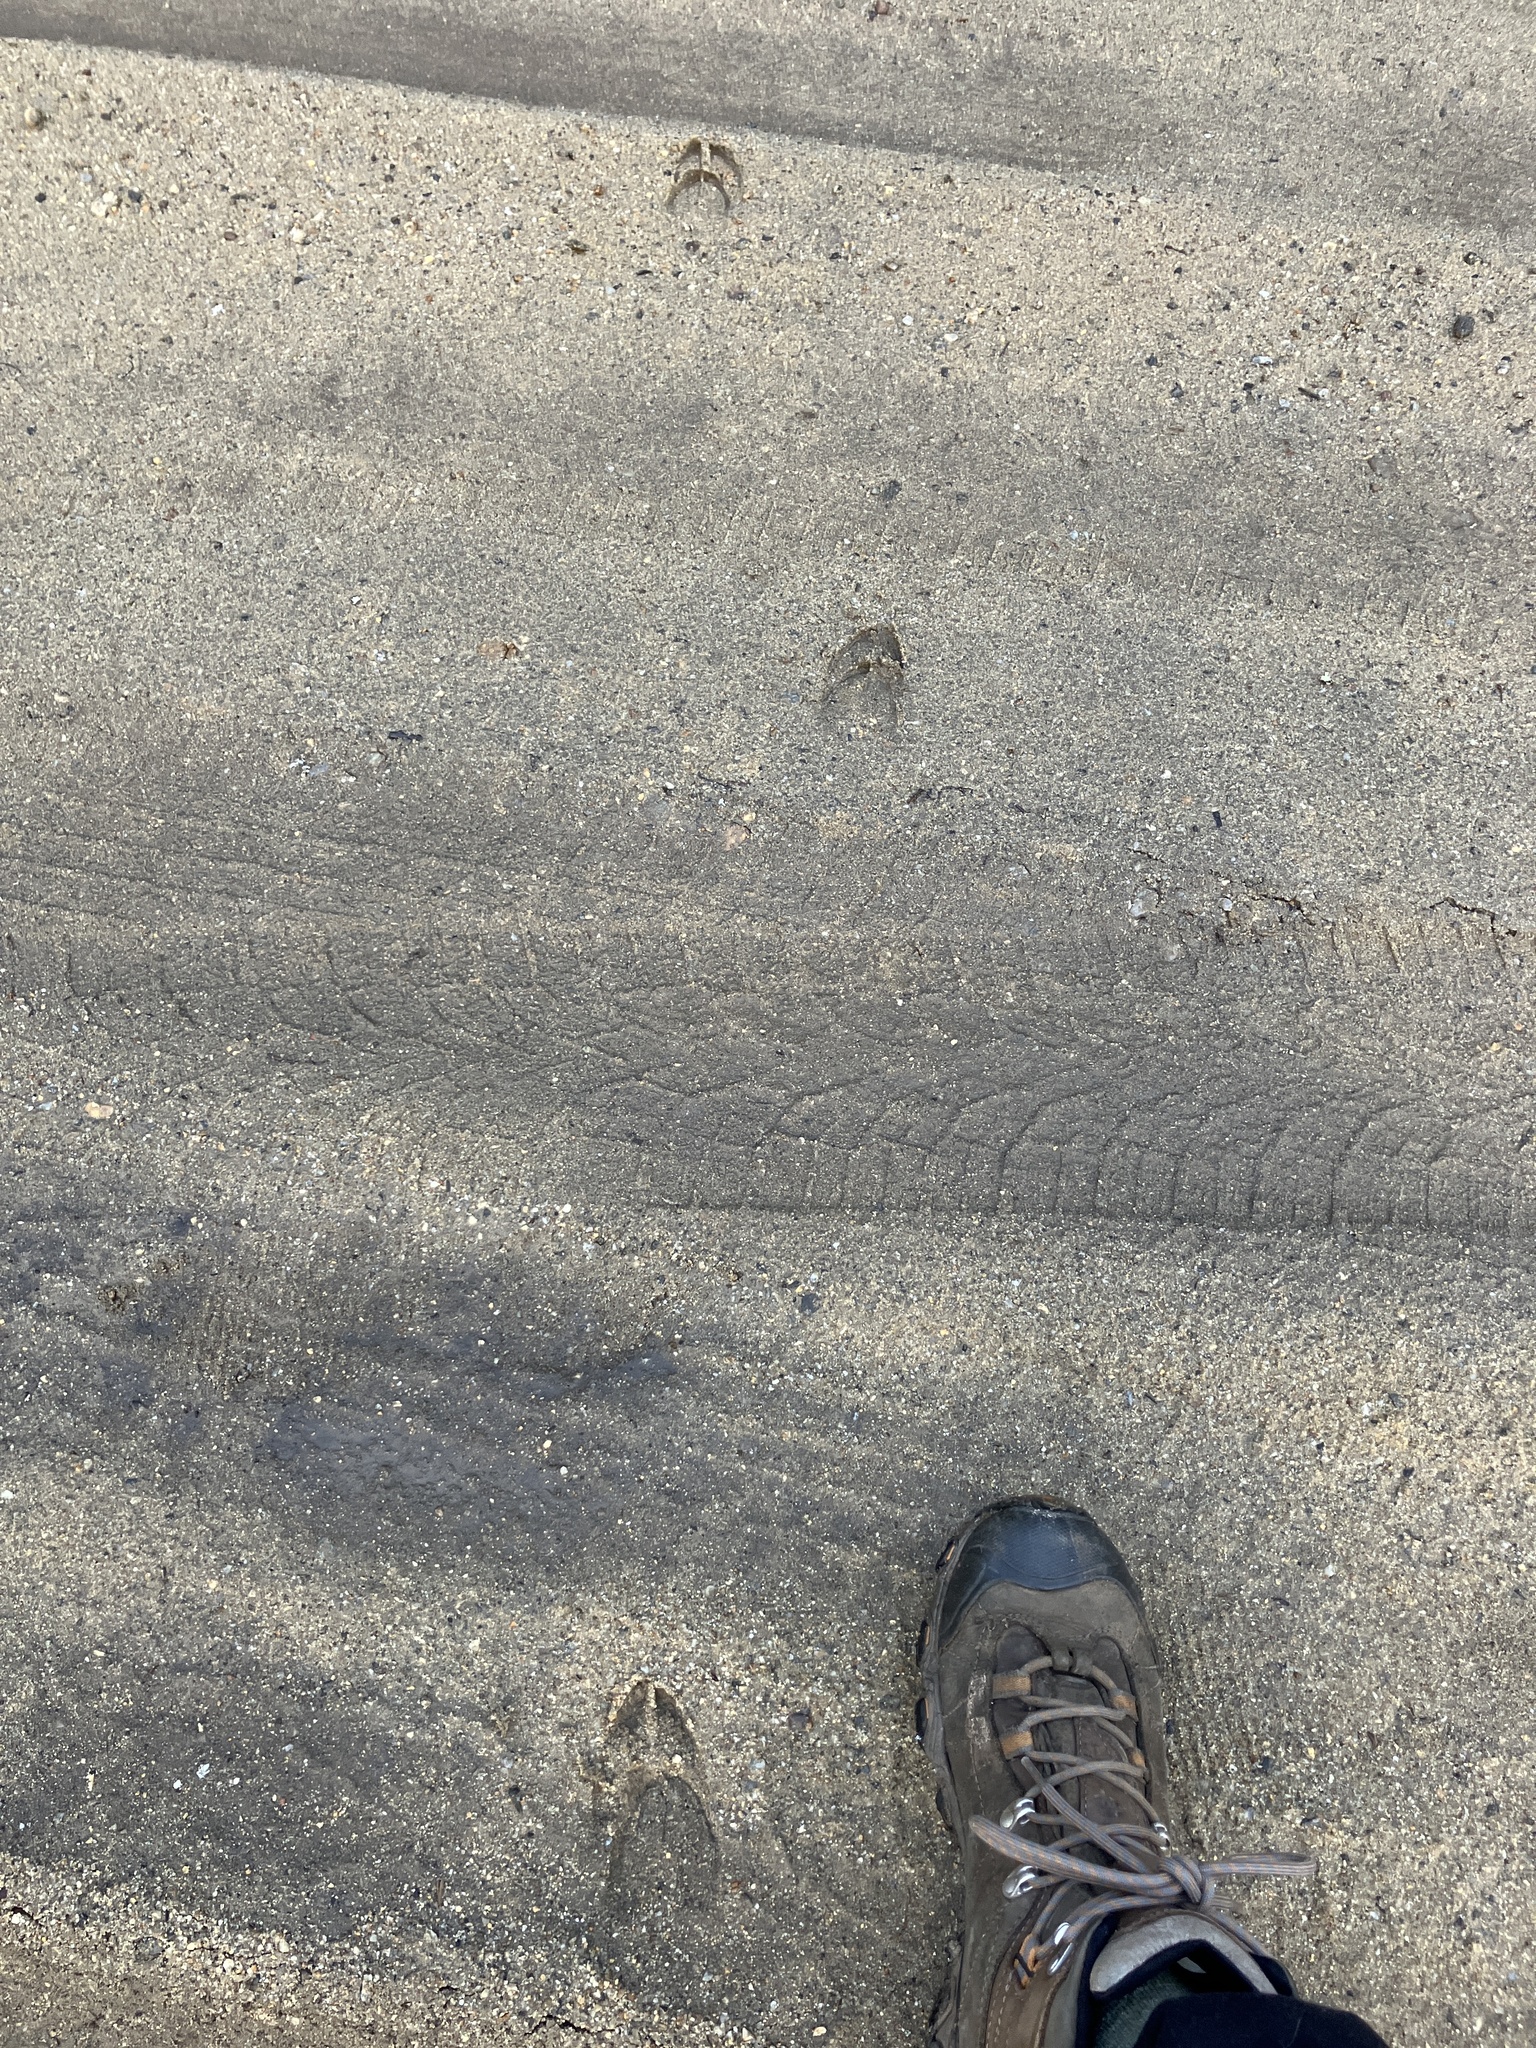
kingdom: Animalia
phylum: Chordata
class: Mammalia
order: Artiodactyla
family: Cervidae
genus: Odocoileus
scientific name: Odocoileus virginianus
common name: White-tailed deer
